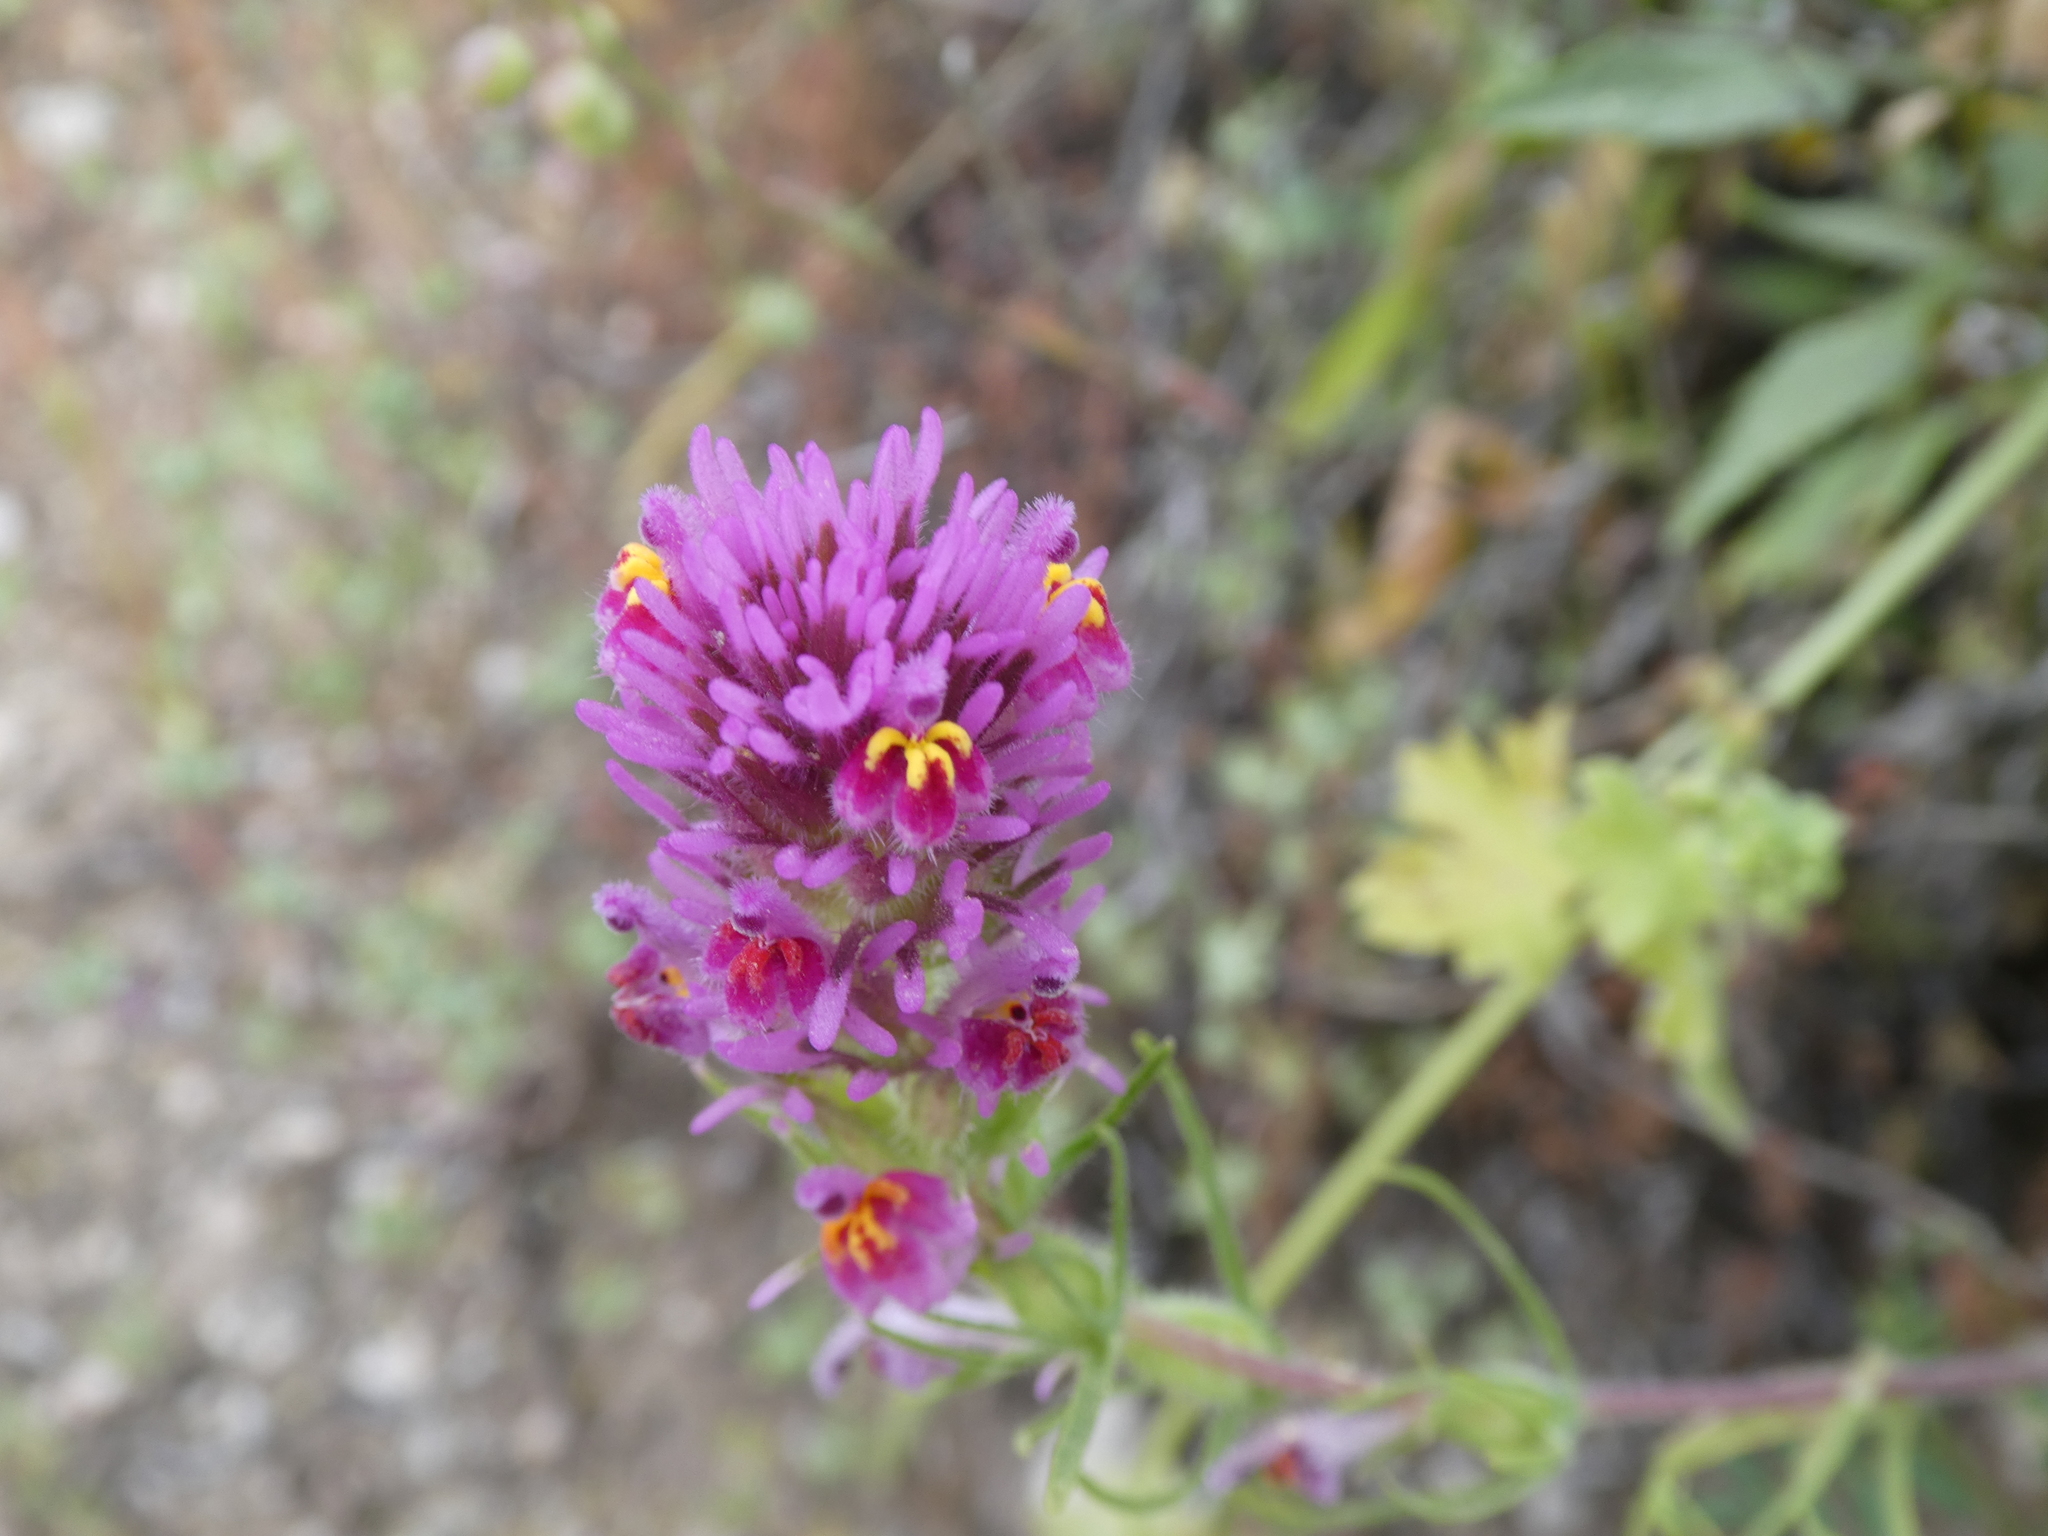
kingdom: Plantae
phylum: Tracheophyta
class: Magnoliopsida
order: Lamiales
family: Orobanchaceae
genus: Castilleja
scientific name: Castilleja exserta
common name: Purple owl-clover
